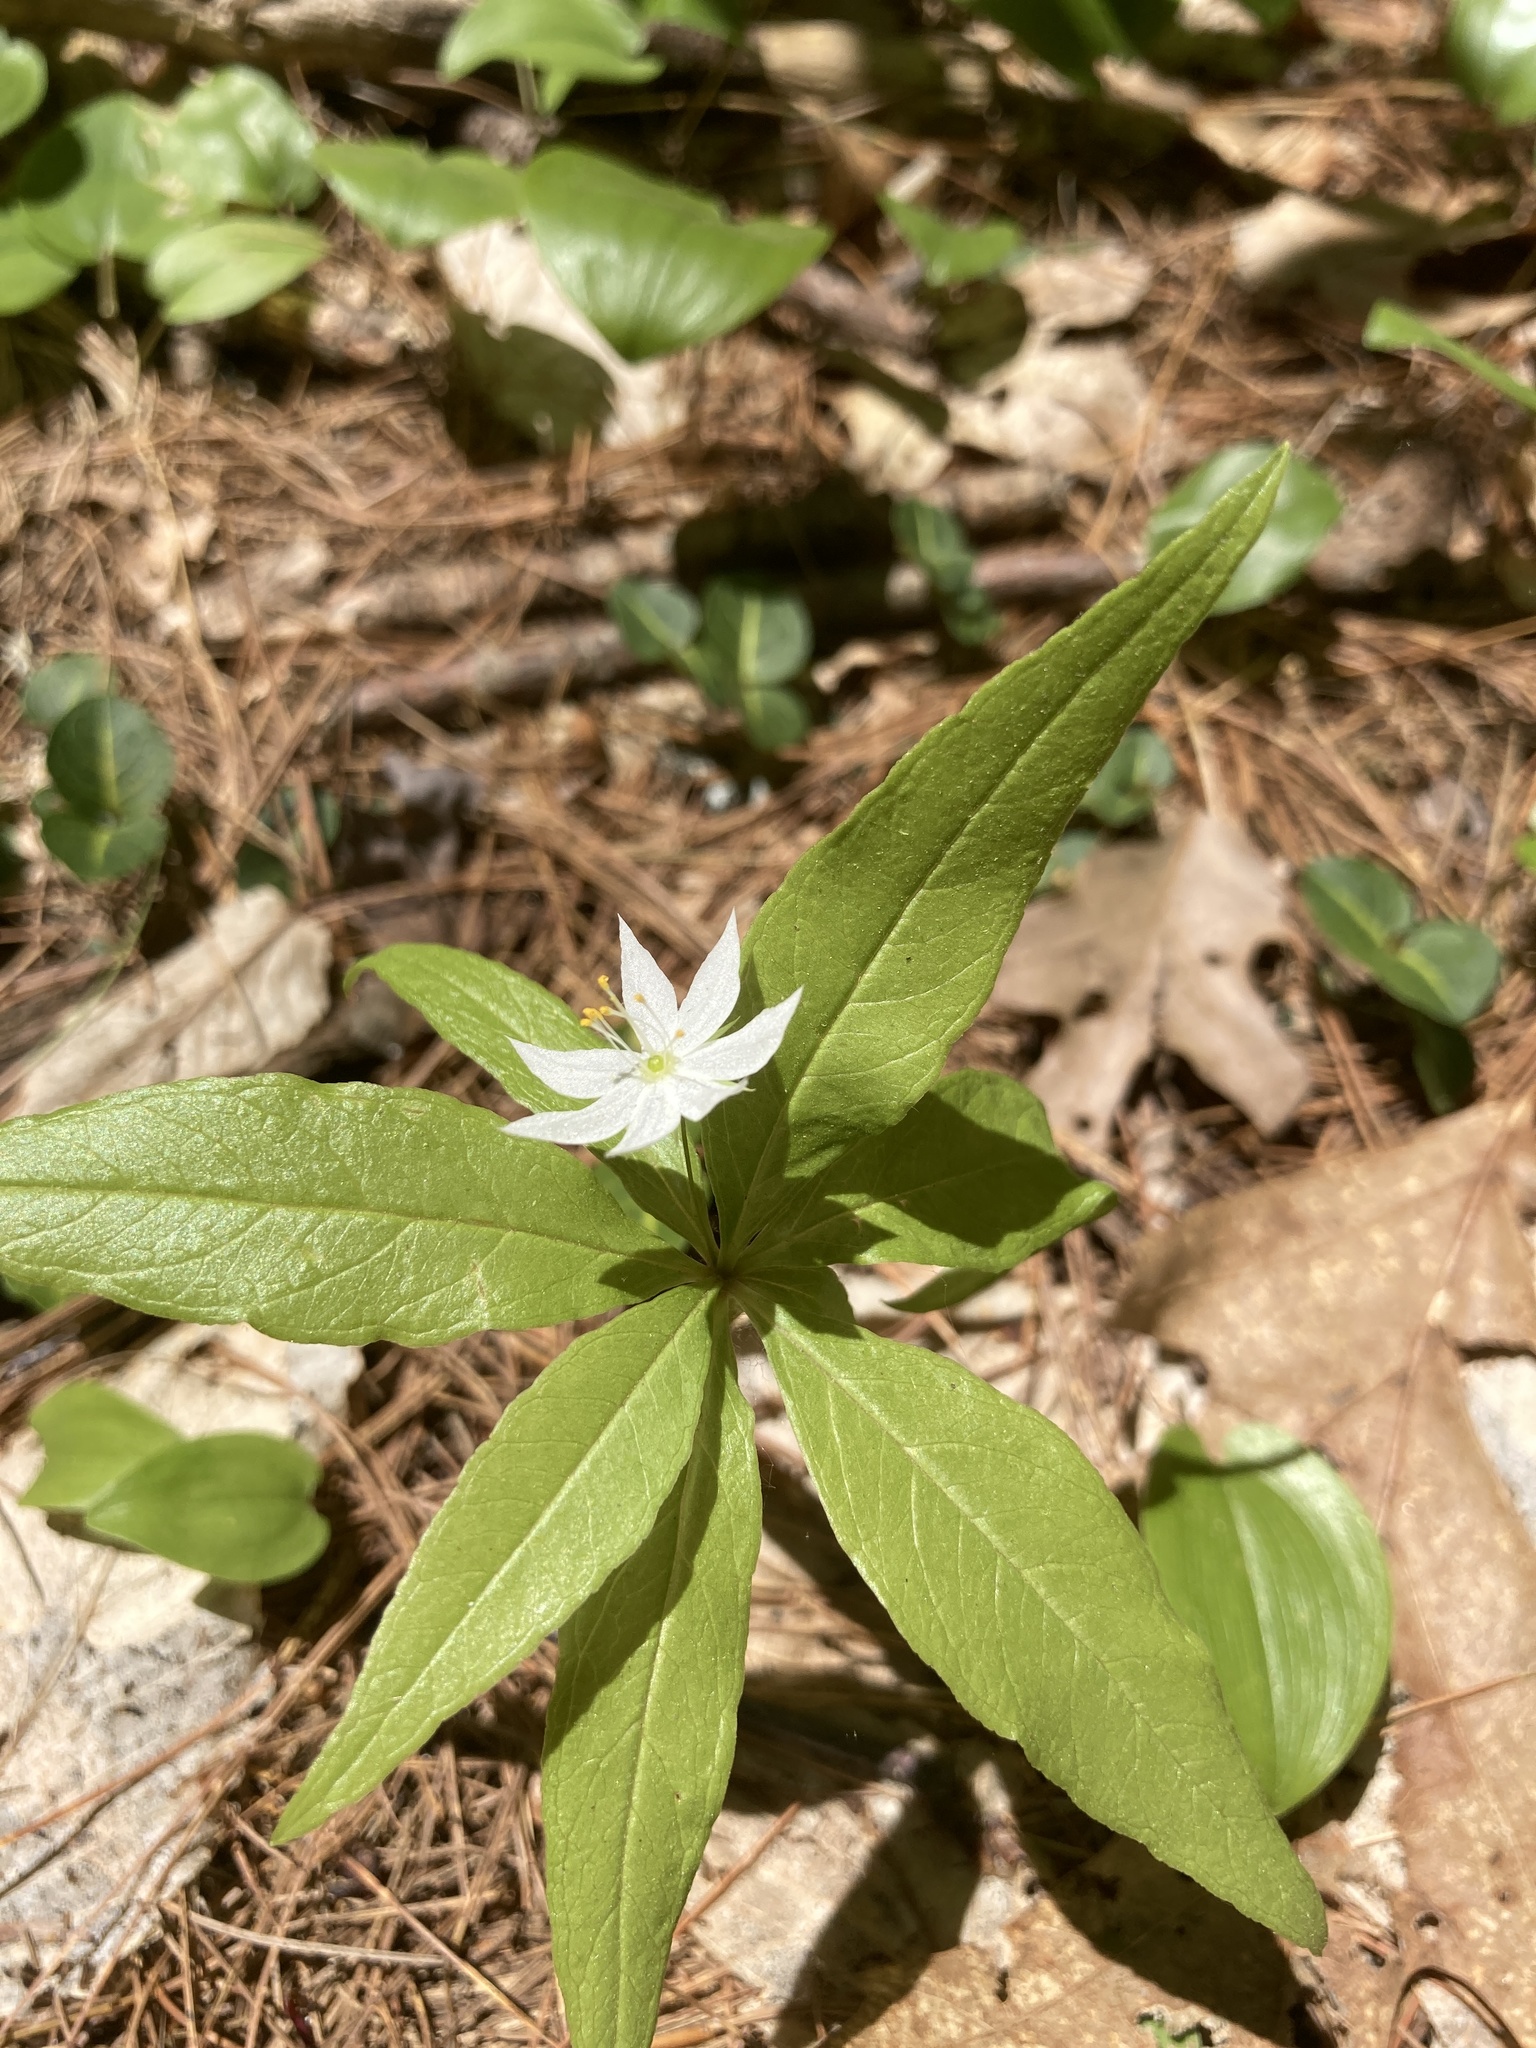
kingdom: Plantae
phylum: Tracheophyta
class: Magnoliopsida
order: Ericales
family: Primulaceae
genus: Lysimachia
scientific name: Lysimachia borealis
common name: American starflower
